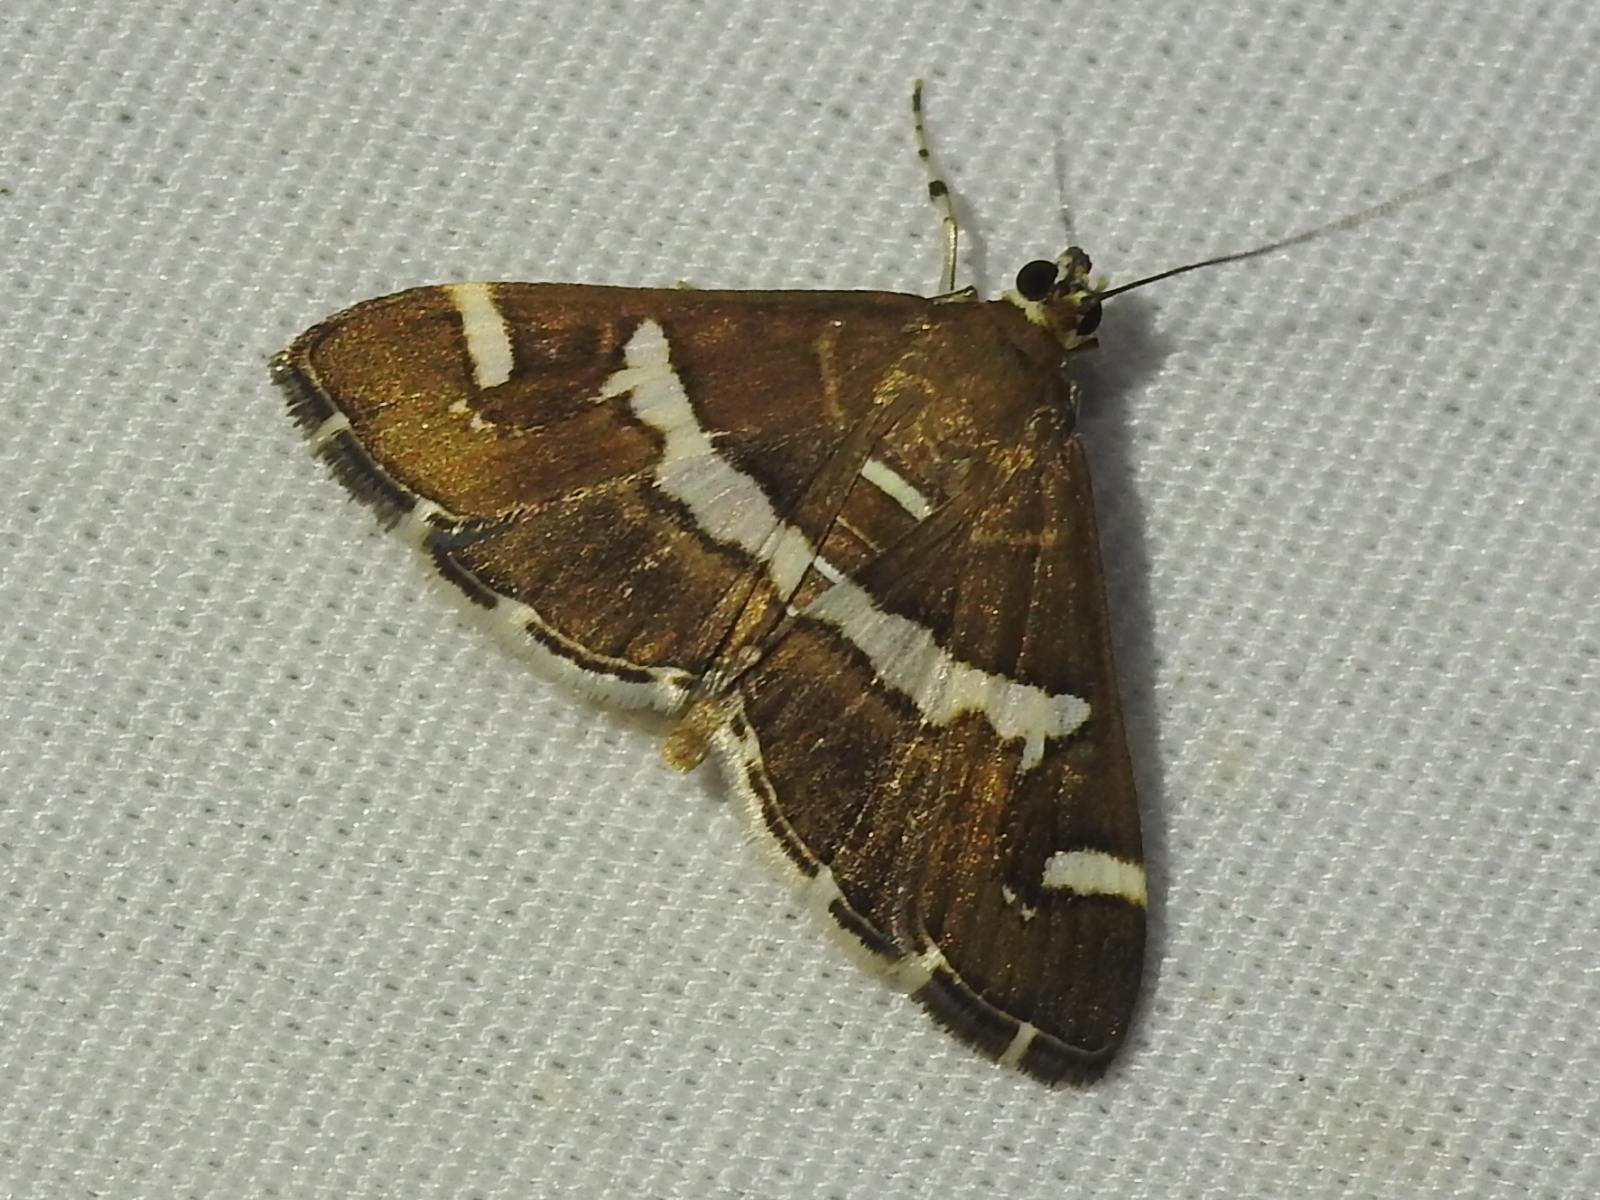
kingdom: Animalia
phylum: Arthropoda
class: Insecta
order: Lepidoptera
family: Crambidae
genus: Spoladea
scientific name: Spoladea recurvalis
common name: Beet webworm moth
